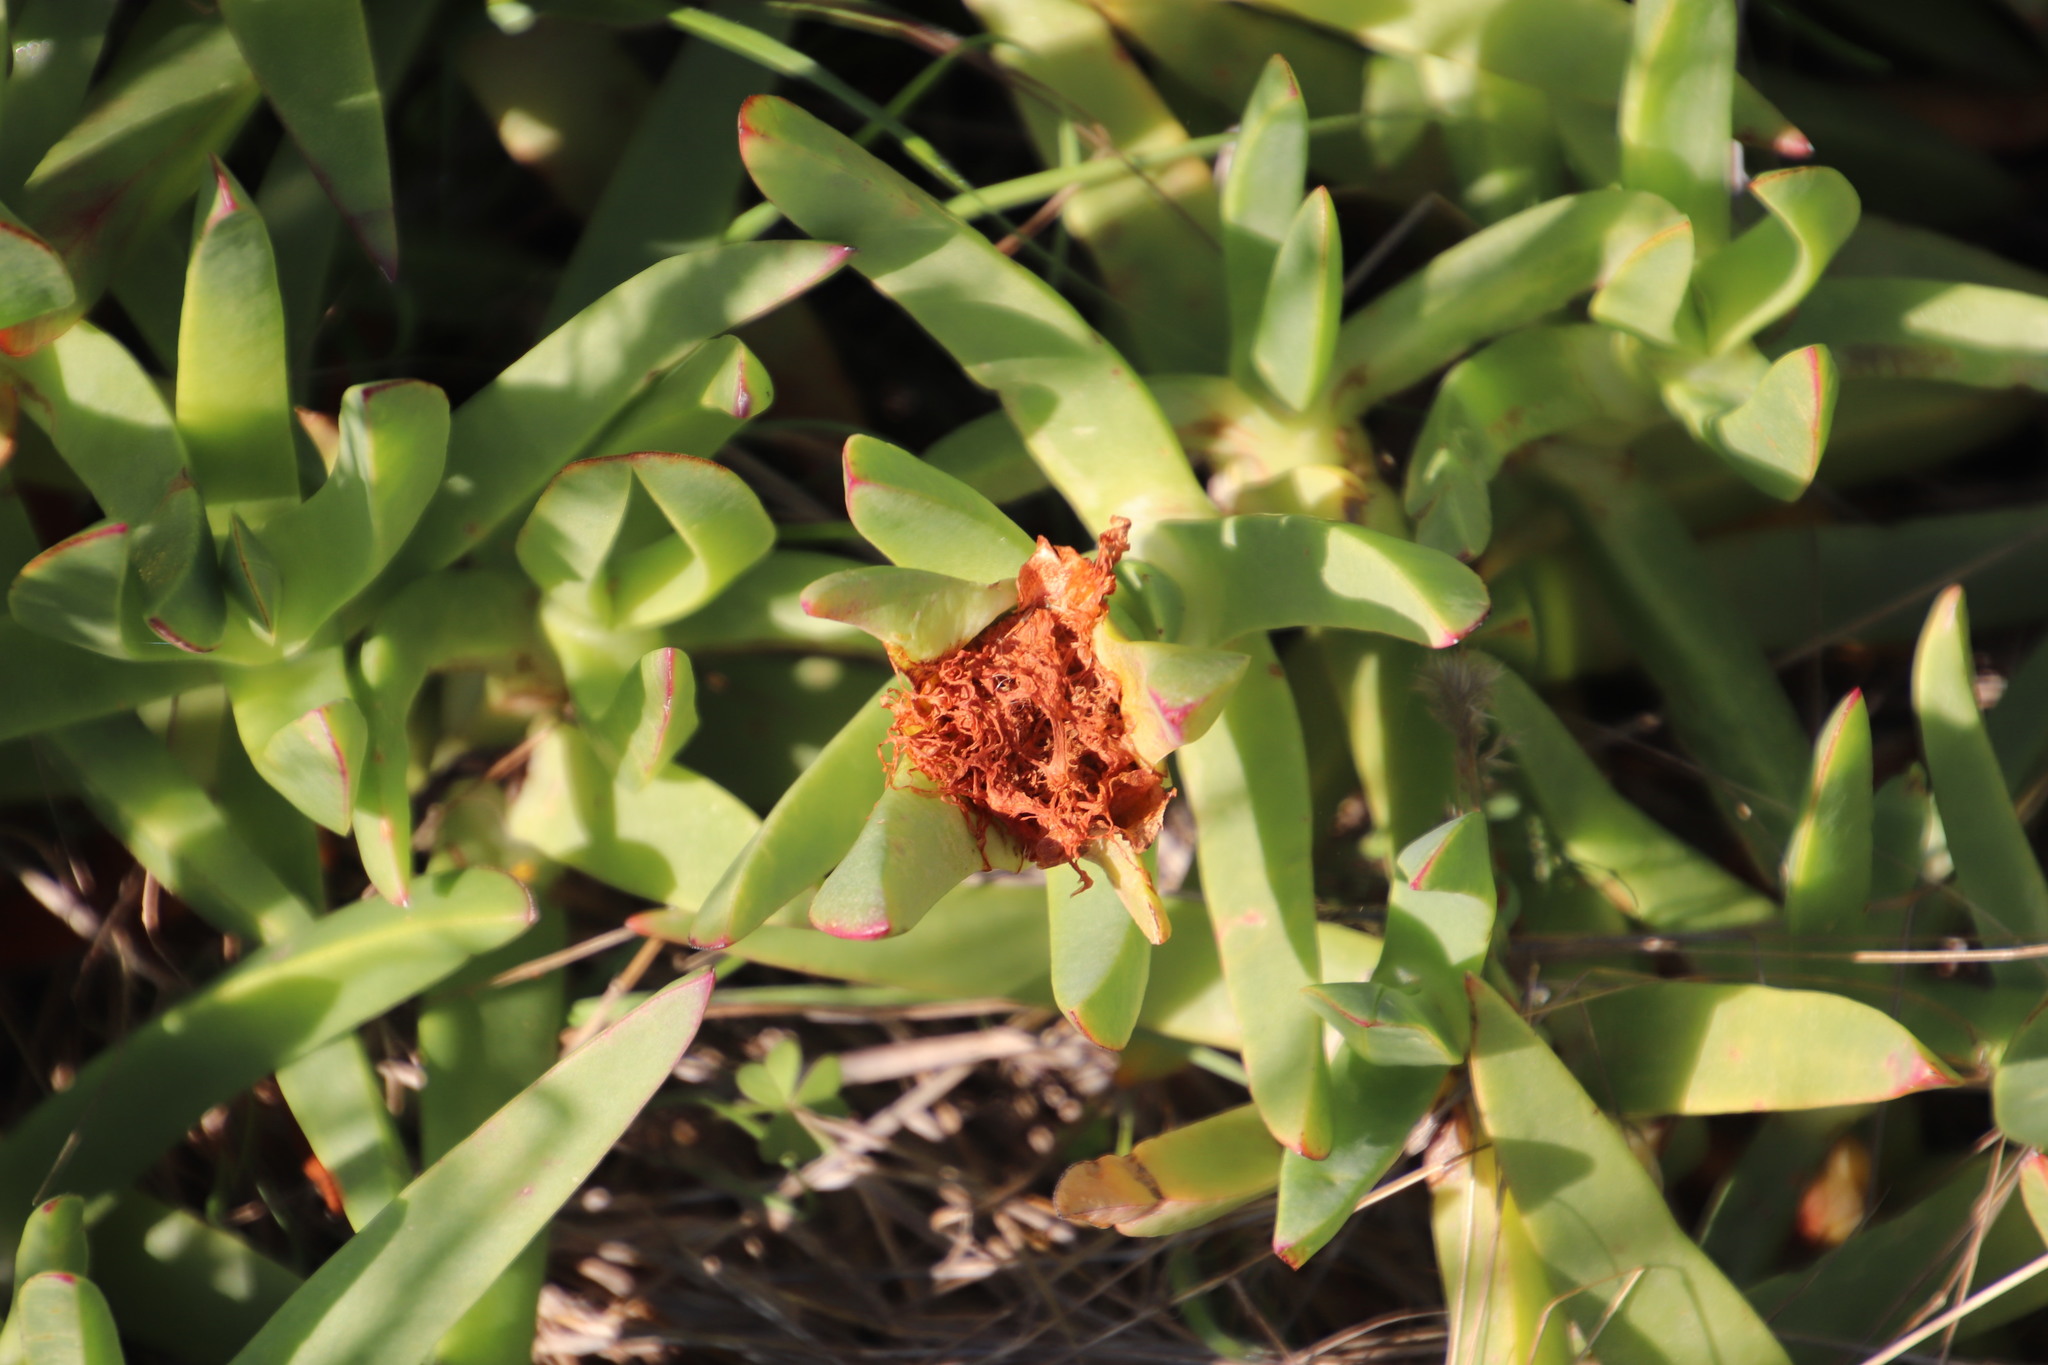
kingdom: Plantae
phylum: Tracheophyta
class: Magnoliopsida
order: Caryophyllales
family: Aizoaceae
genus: Carpobrotus
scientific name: Carpobrotus edulis
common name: Hottentot-fig
